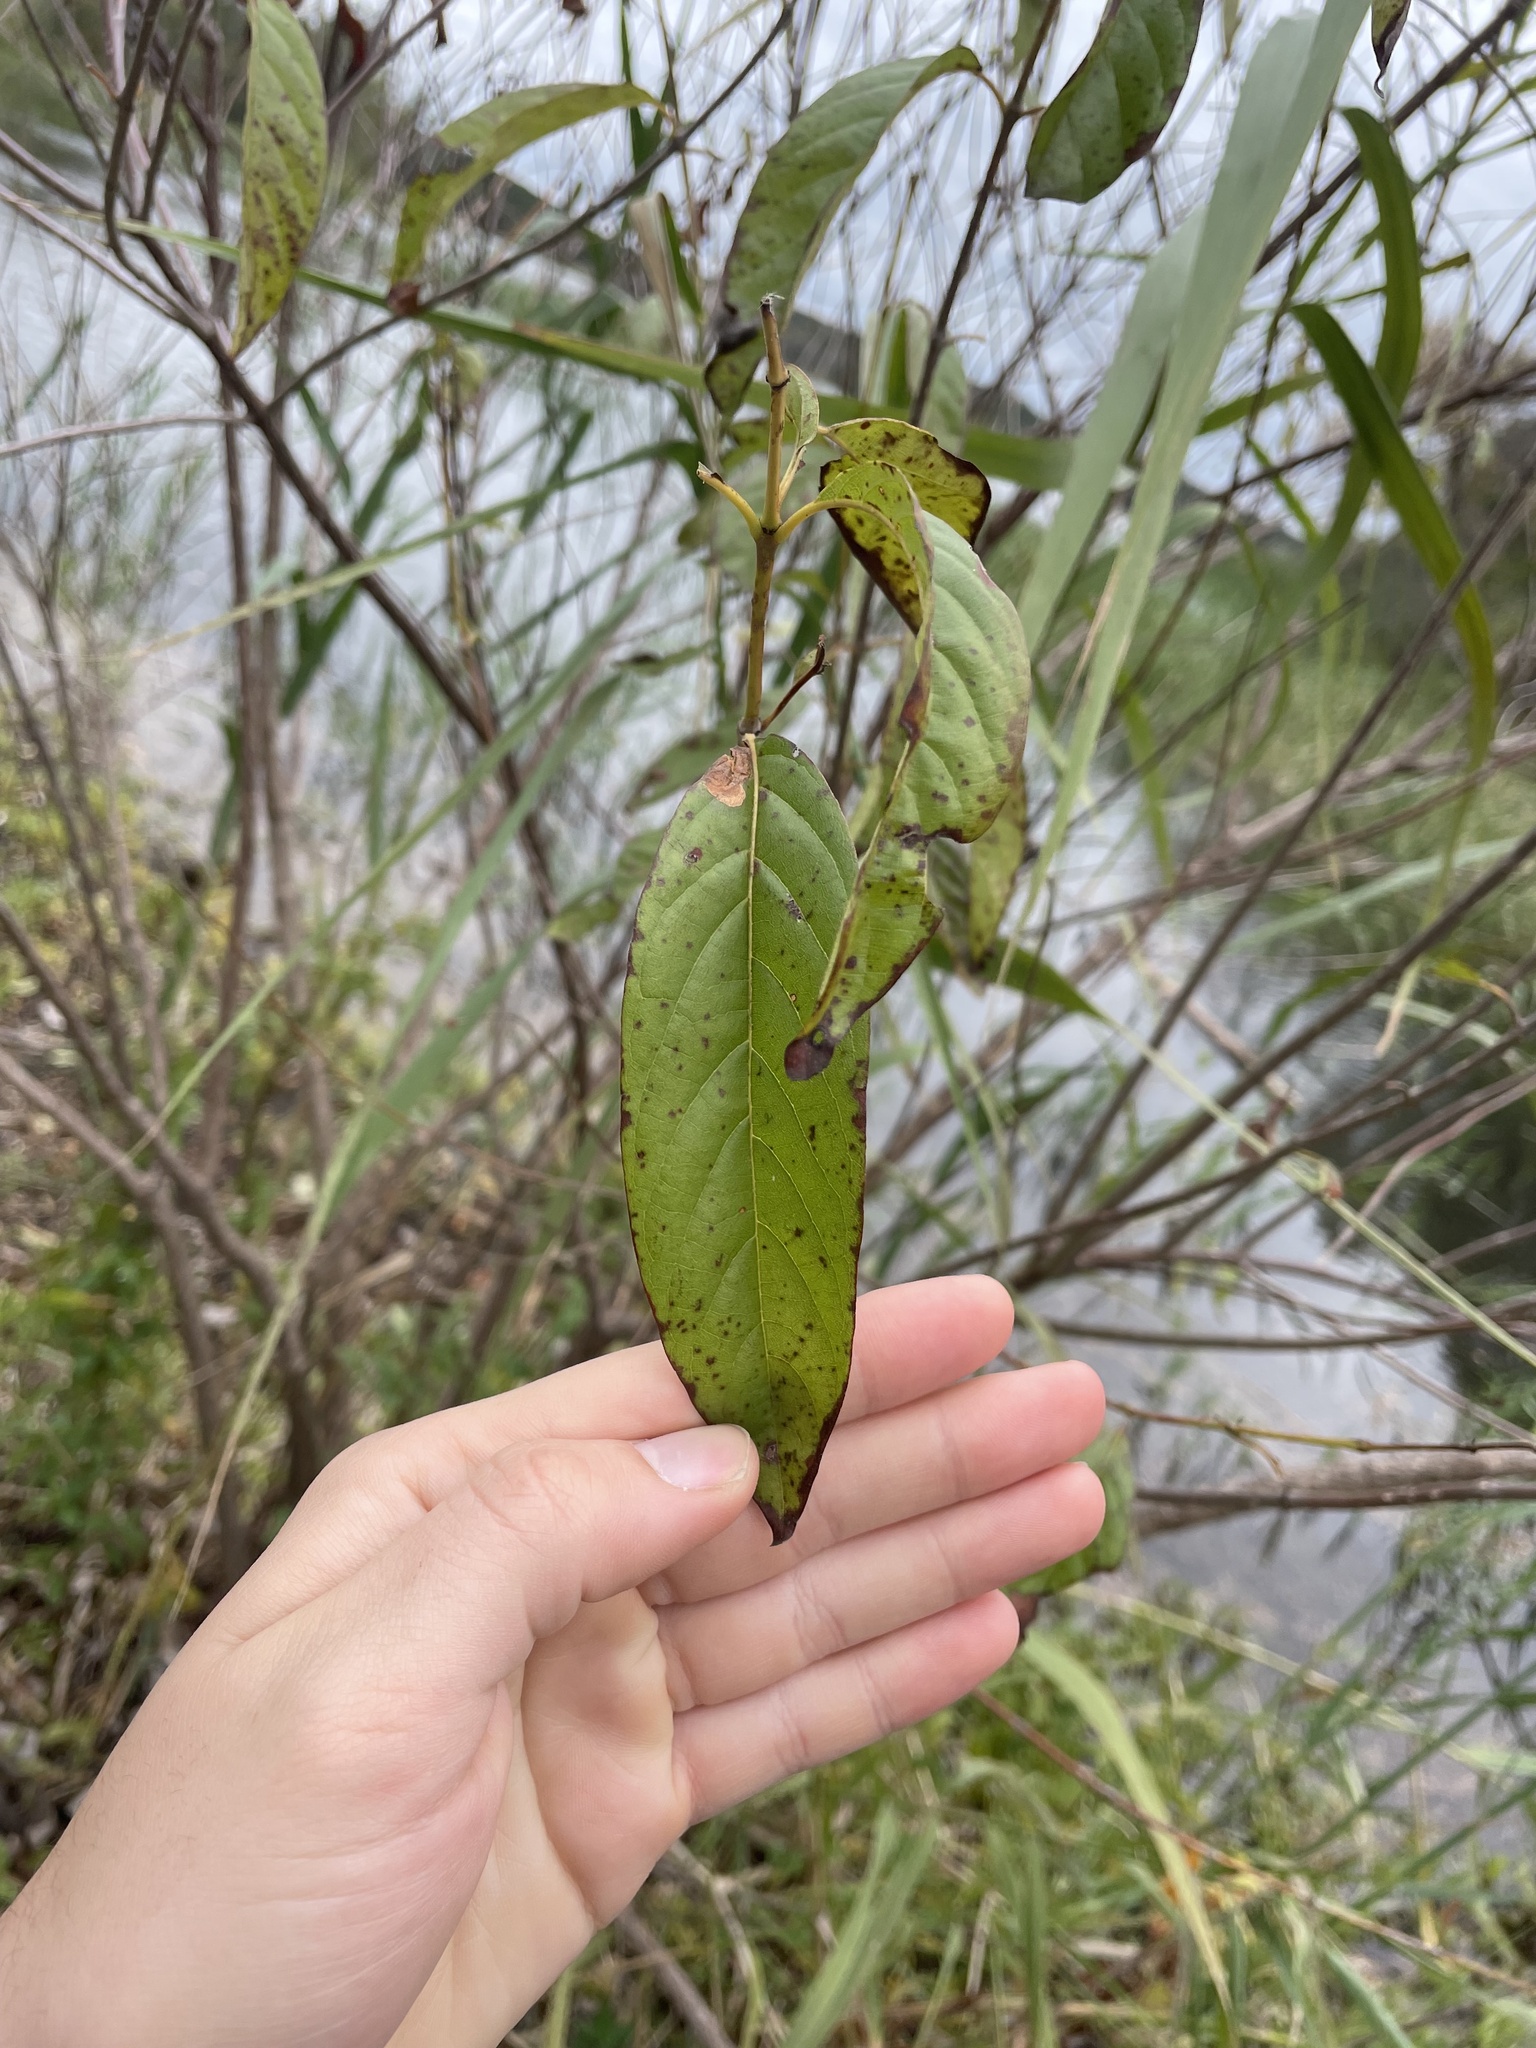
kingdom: Plantae
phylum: Tracheophyta
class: Magnoliopsida
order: Gentianales
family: Rubiaceae
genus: Cephalanthus
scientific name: Cephalanthus occidentalis
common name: Button-willow
